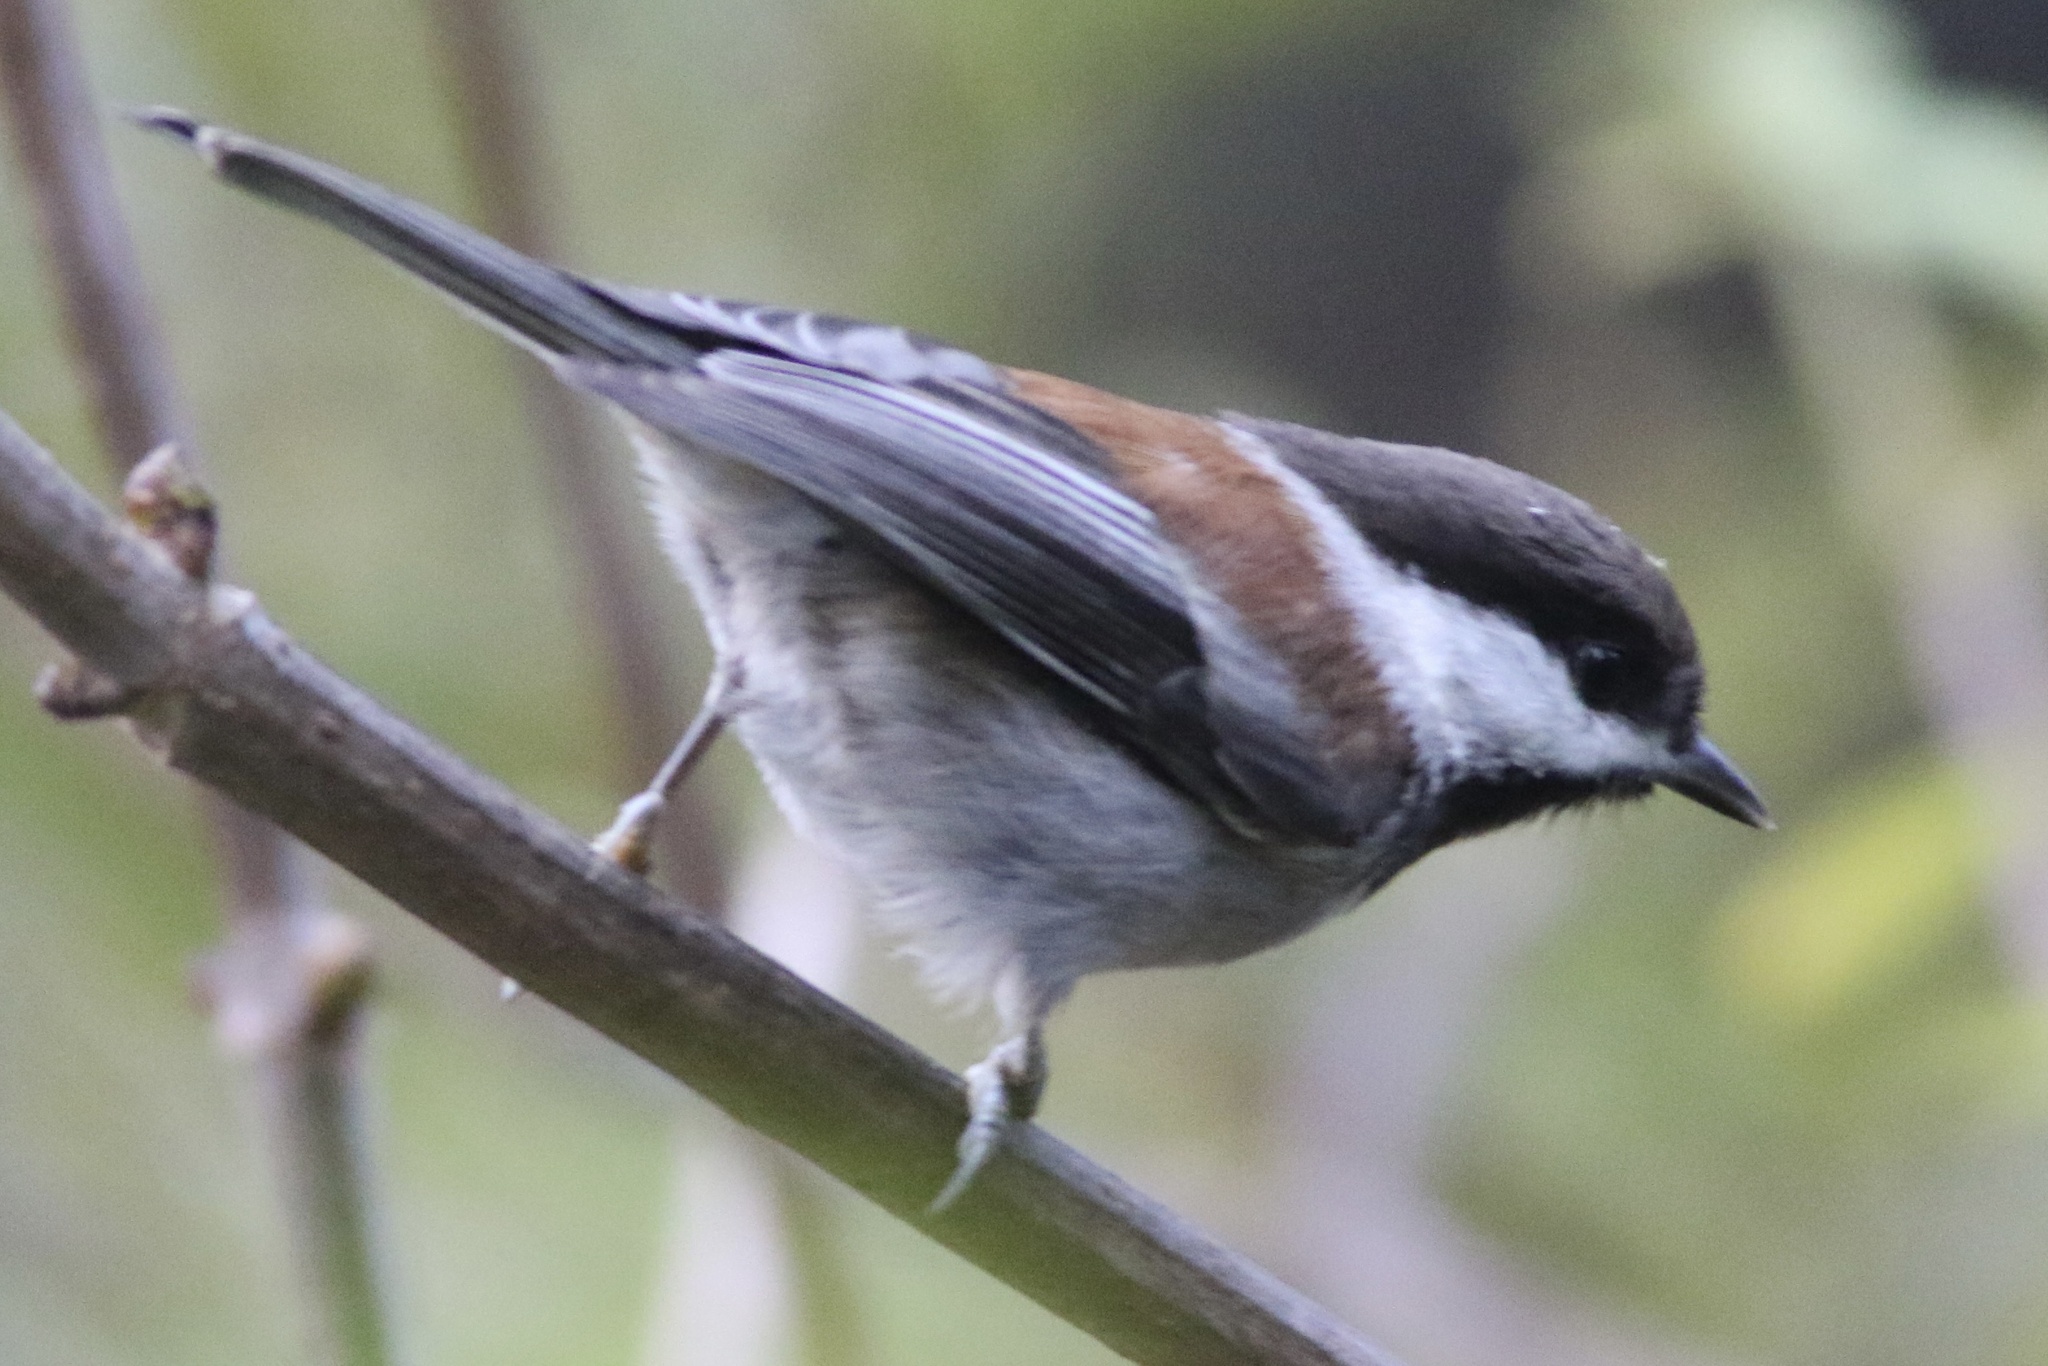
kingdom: Animalia
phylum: Chordata
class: Aves
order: Passeriformes
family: Paridae
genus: Poecile
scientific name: Poecile rufescens
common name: Chestnut-backed chickadee
